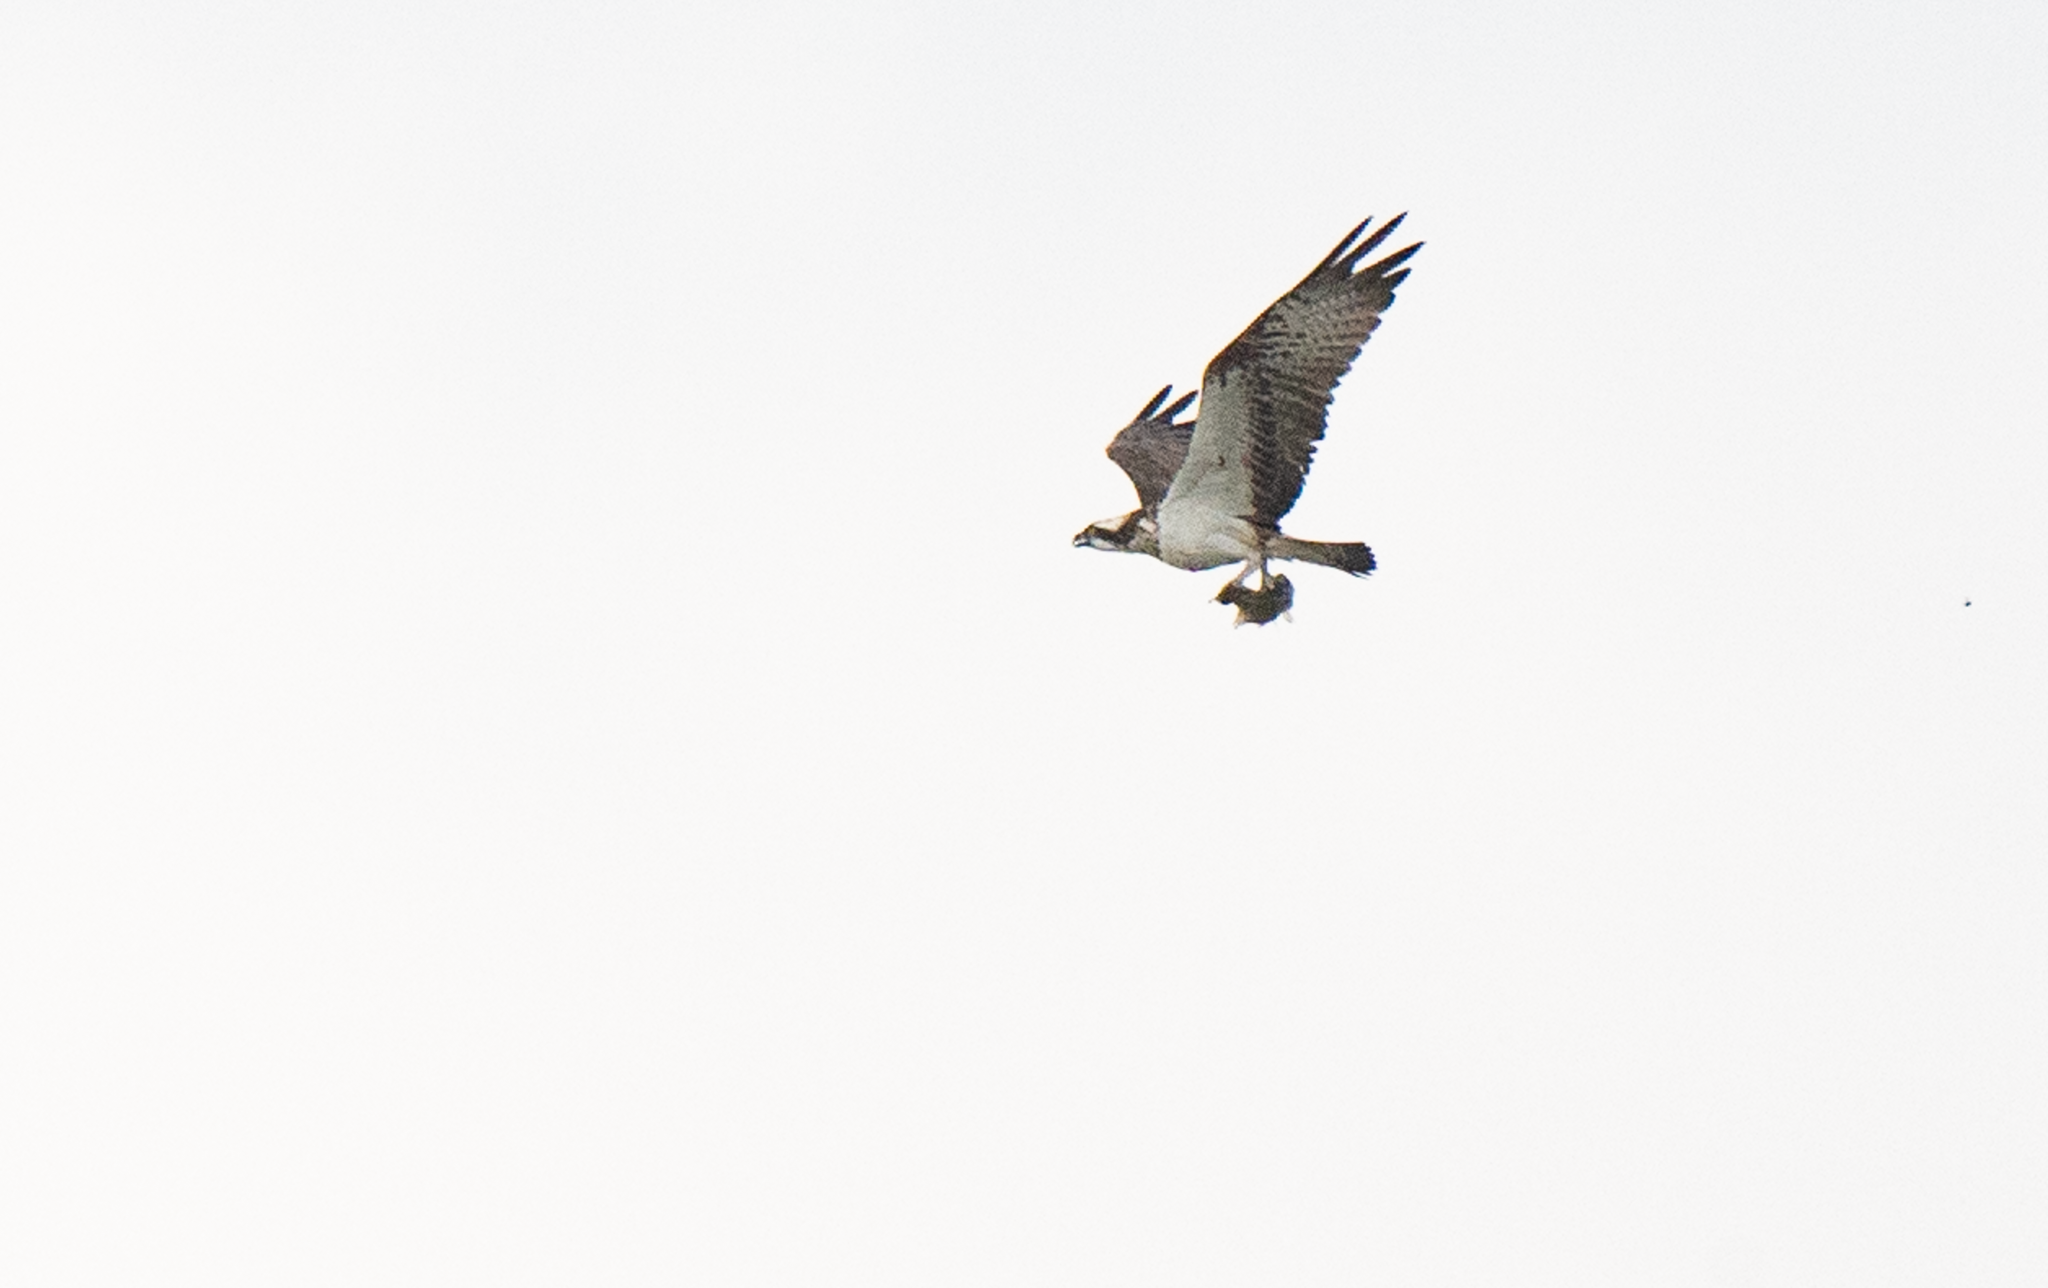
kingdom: Animalia
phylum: Chordata
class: Aves
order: Accipitriformes
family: Pandionidae
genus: Pandion
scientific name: Pandion haliaetus
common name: Osprey
